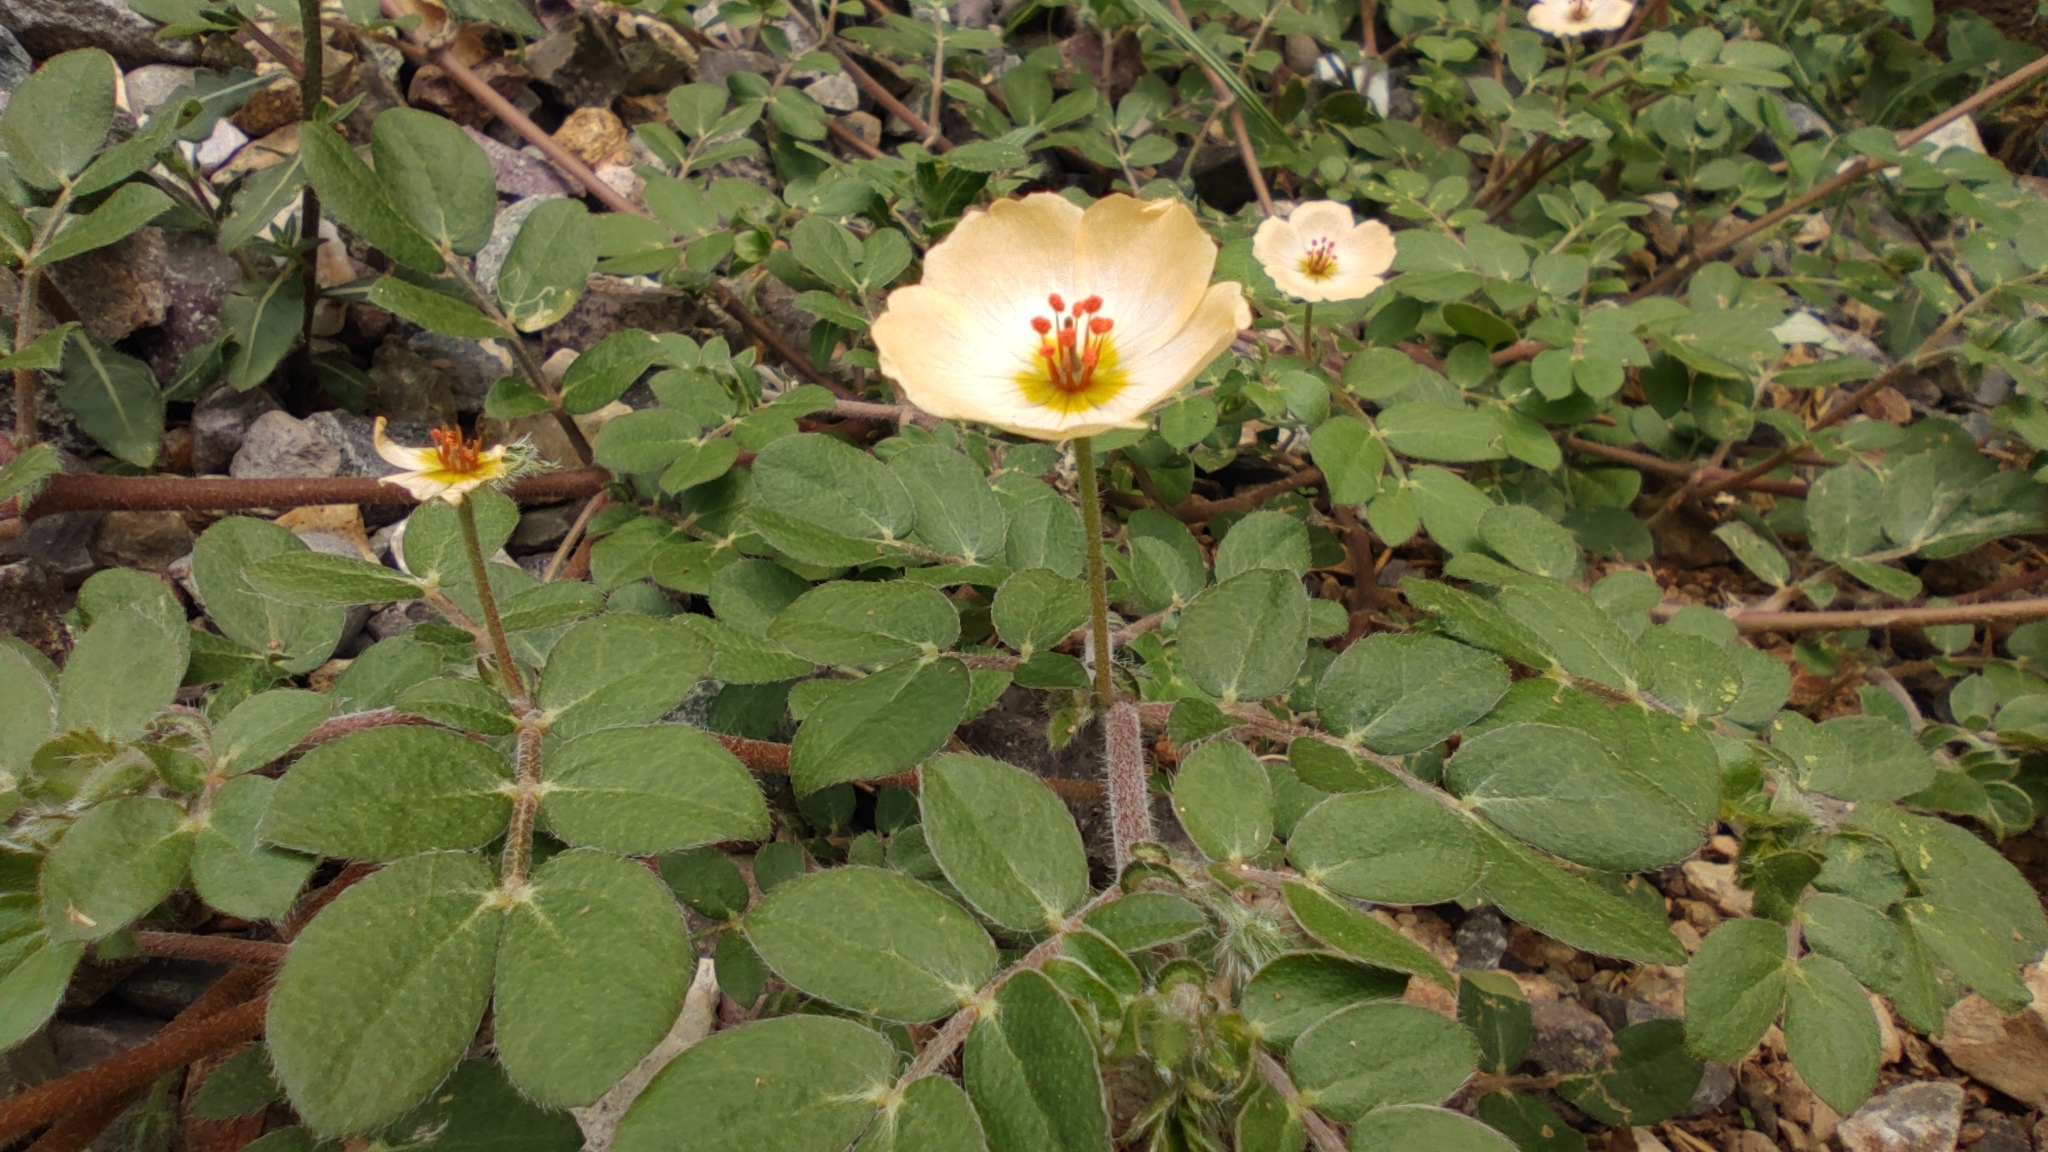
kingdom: Plantae
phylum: Tracheophyta
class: Magnoliopsida
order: Zygophyllales
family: Zygophyllaceae
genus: Kallstroemia
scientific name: Kallstroemia maxima
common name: Big caltropa
